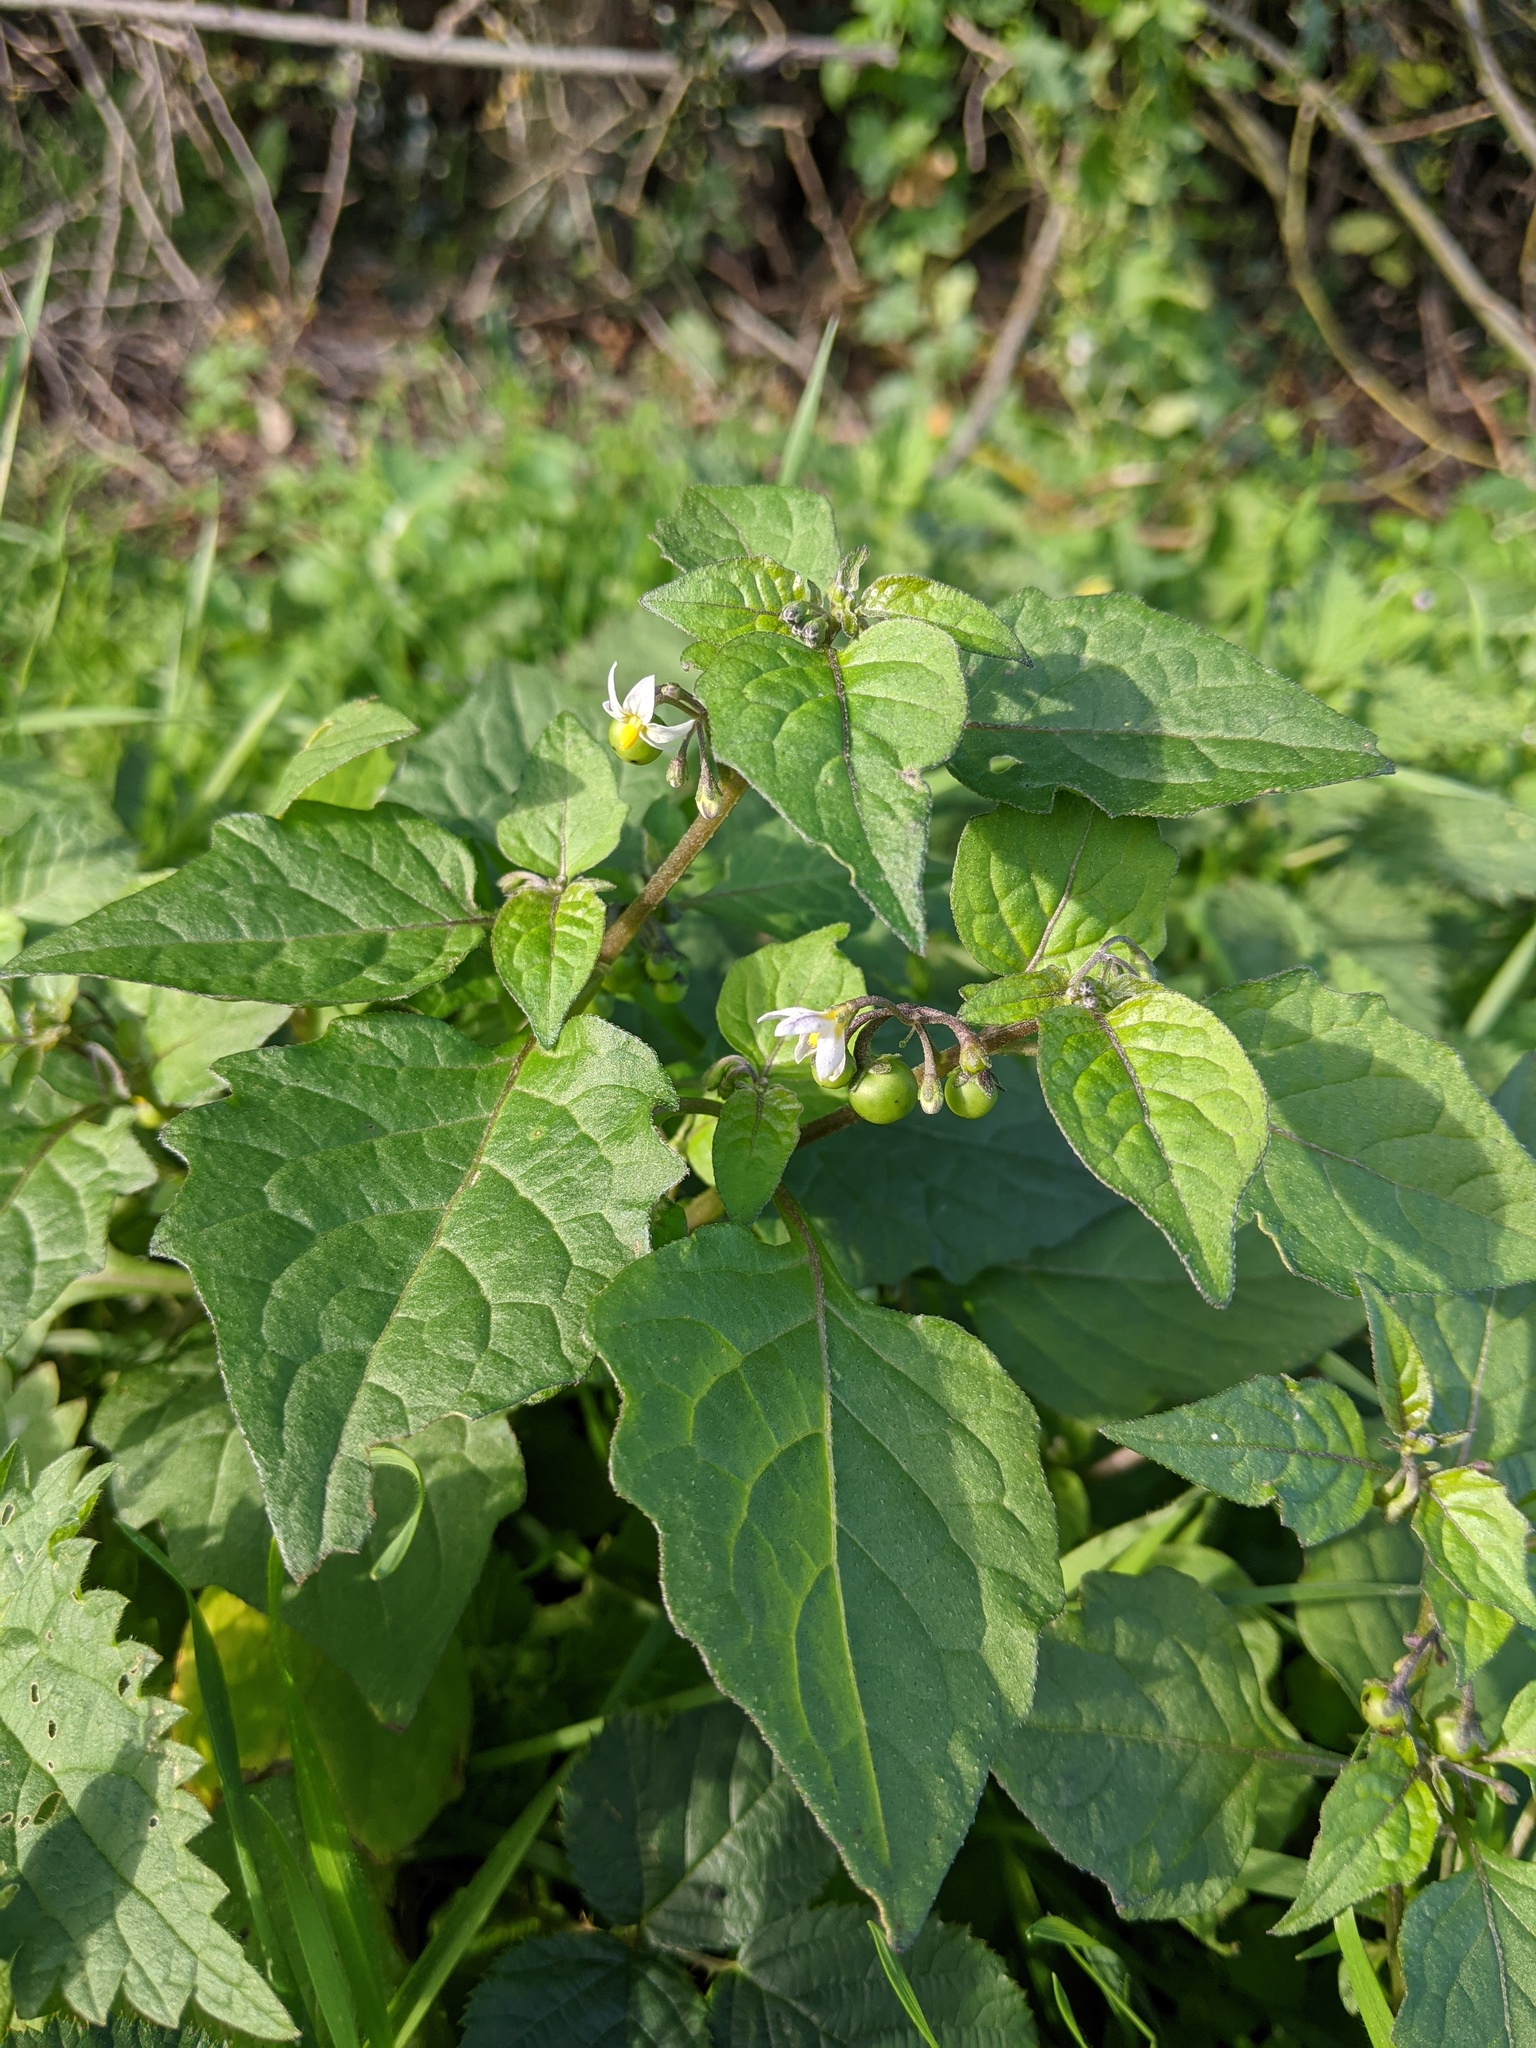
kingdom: Plantae
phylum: Tracheophyta
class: Magnoliopsida
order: Solanales
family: Solanaceae
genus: Solanum
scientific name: Solanum nigrum
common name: Black nightshade
